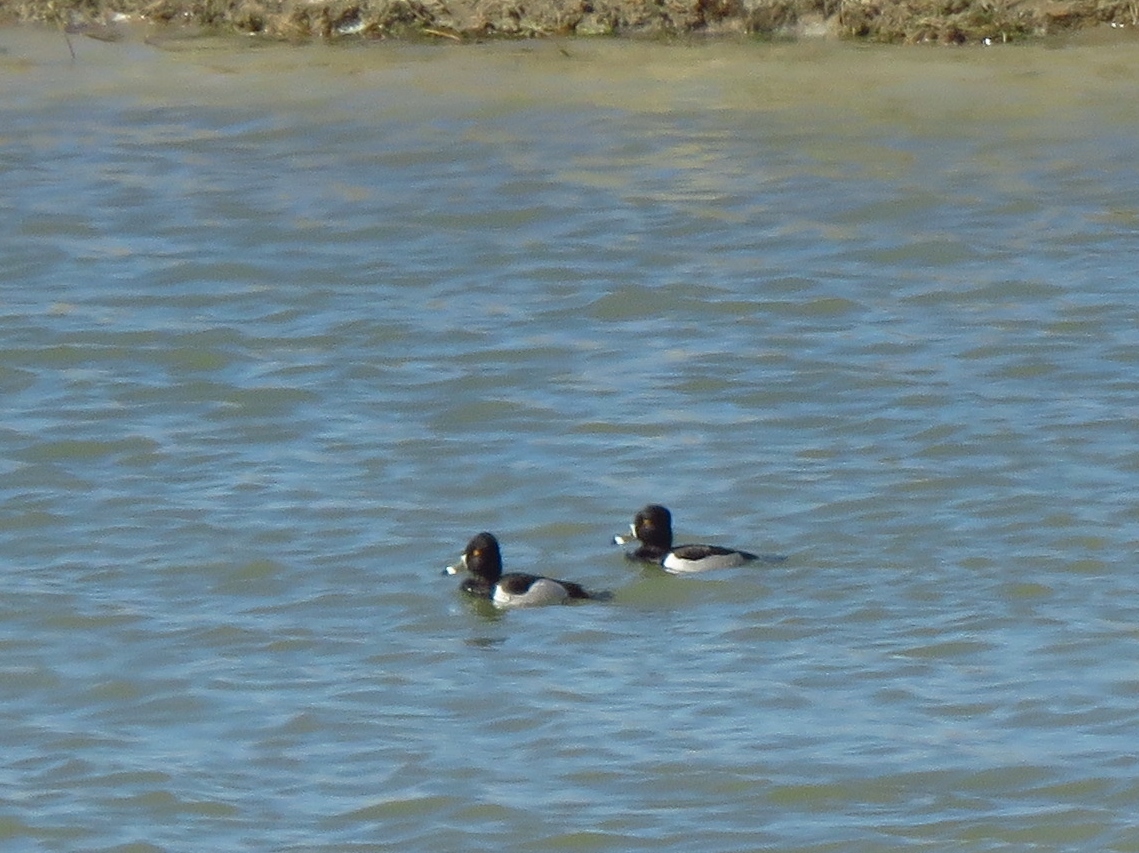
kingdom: Animalia
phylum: Chordata
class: Aves
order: Anseriformes
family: Anatidae
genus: Aythya
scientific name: Aythya collaris
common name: Ring-necked duck
